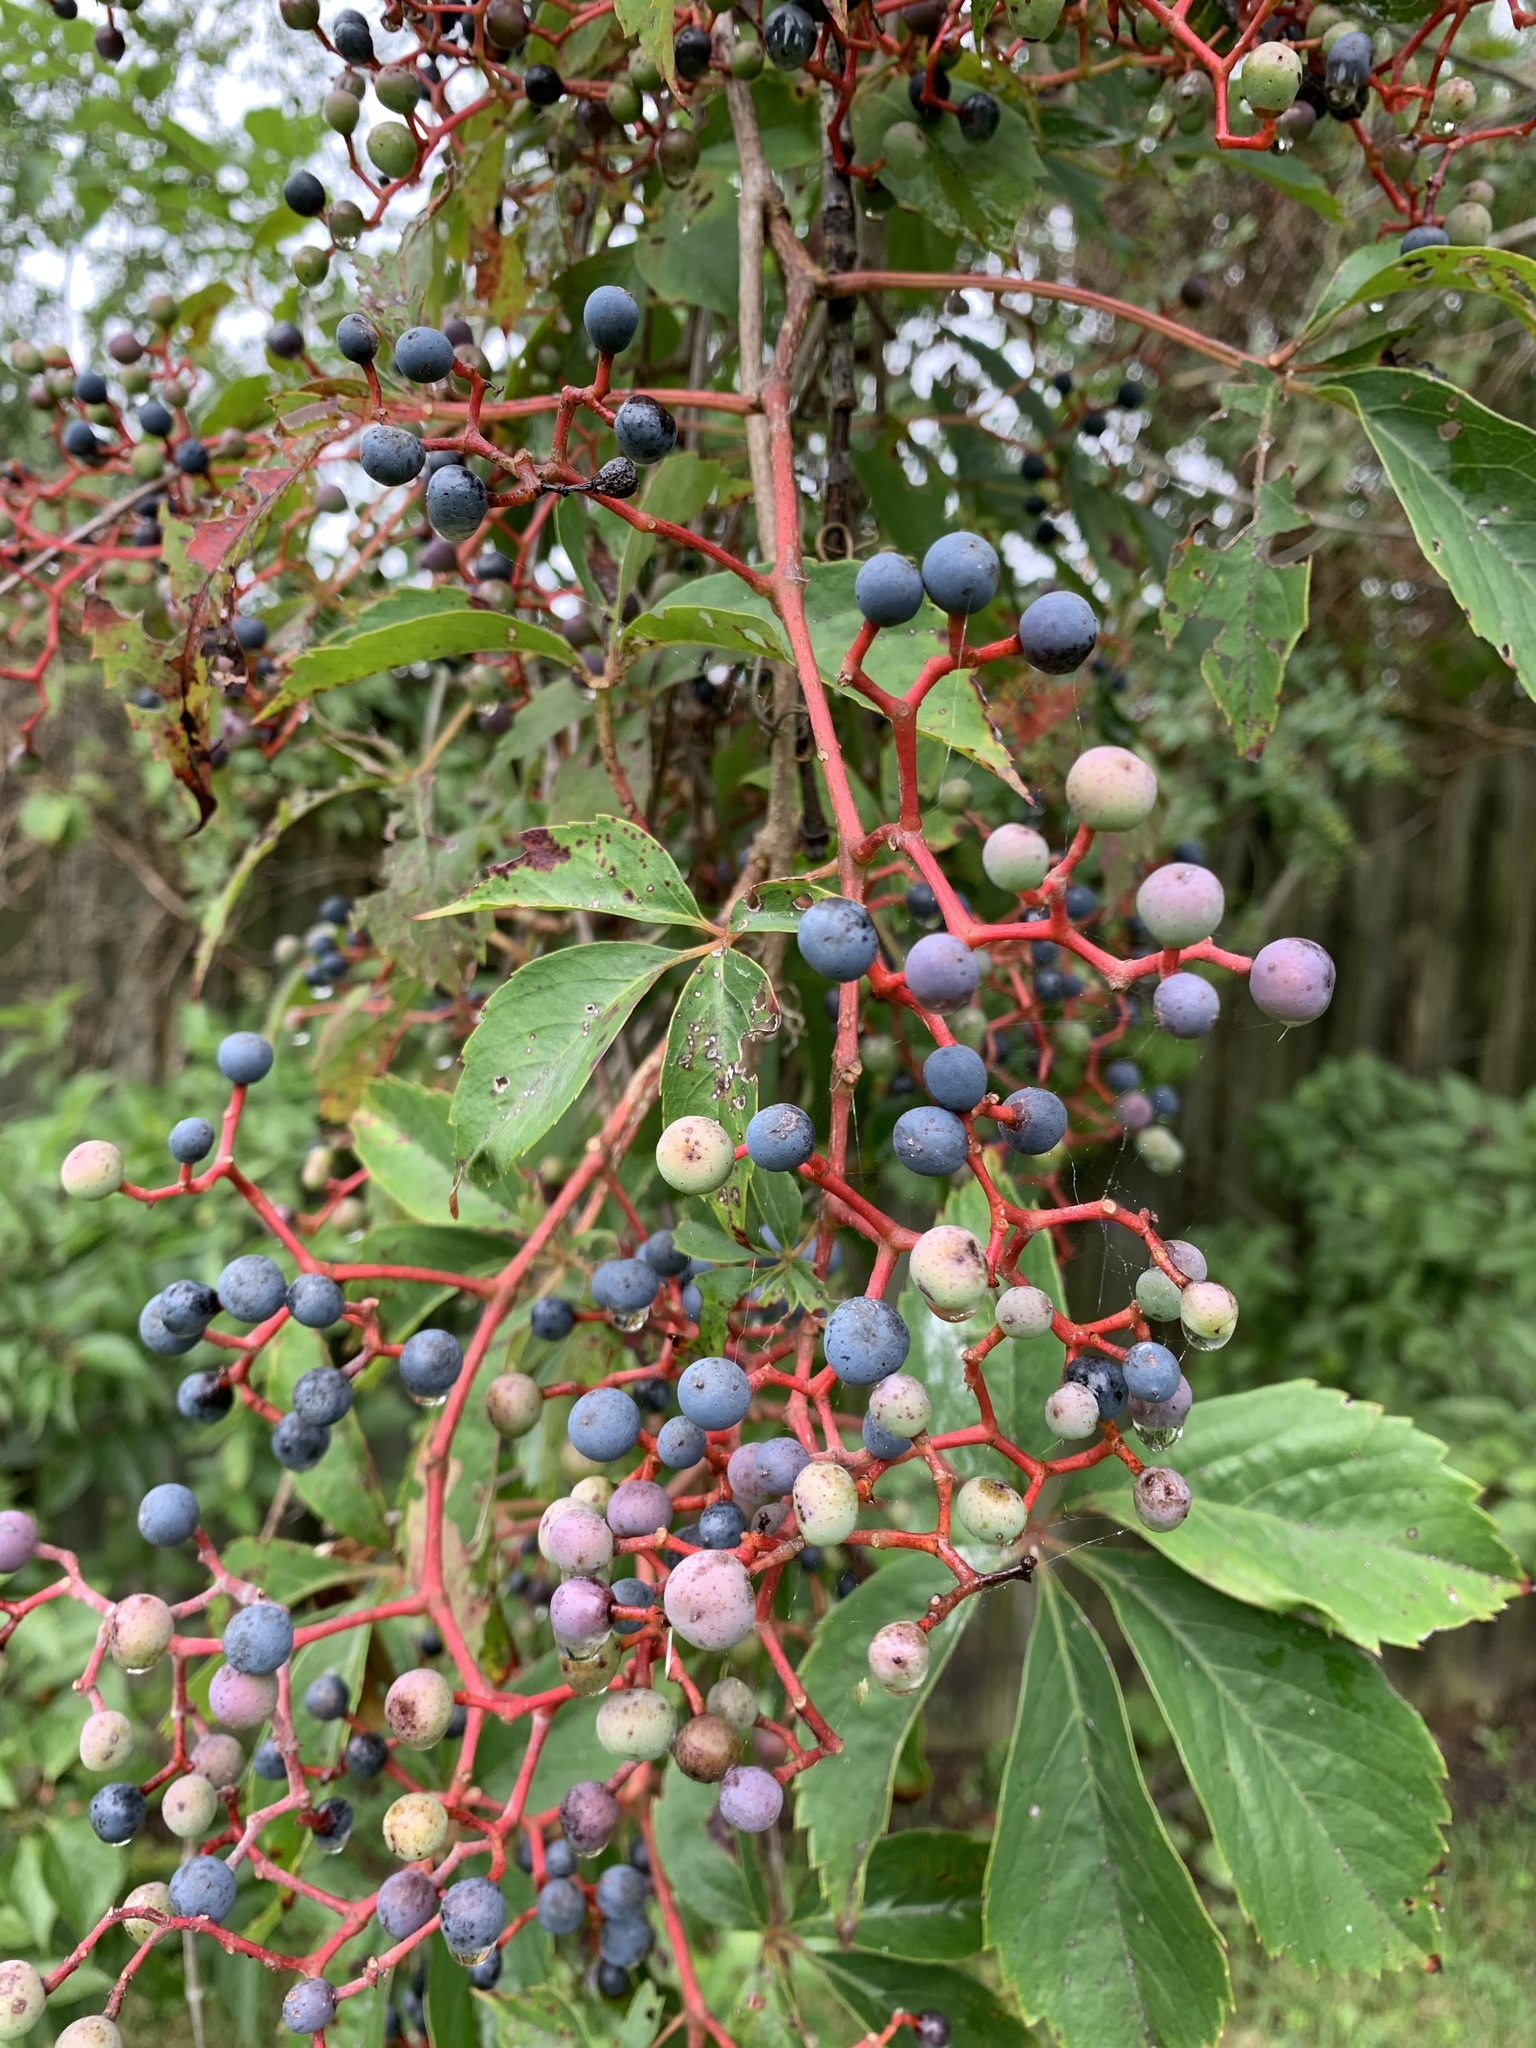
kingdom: Plantae
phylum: Tracheophyta
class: Magnoliopsida
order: Vitales
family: Vitaceae
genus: Parthenocissus
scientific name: Parthenocissus quinquefolia
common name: Virginia-creeper
